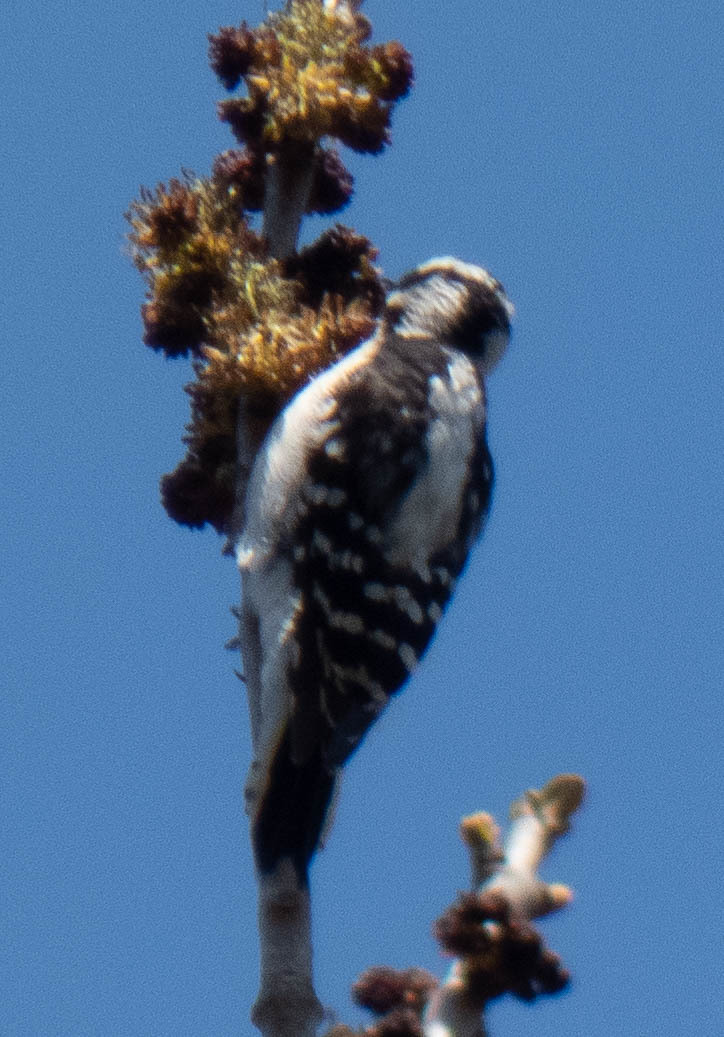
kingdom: Animalia
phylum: Chordata
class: Aves
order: Piciformes
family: Picidae
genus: Dryobates
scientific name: Dryobates pubescens
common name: Downy woodpecker
